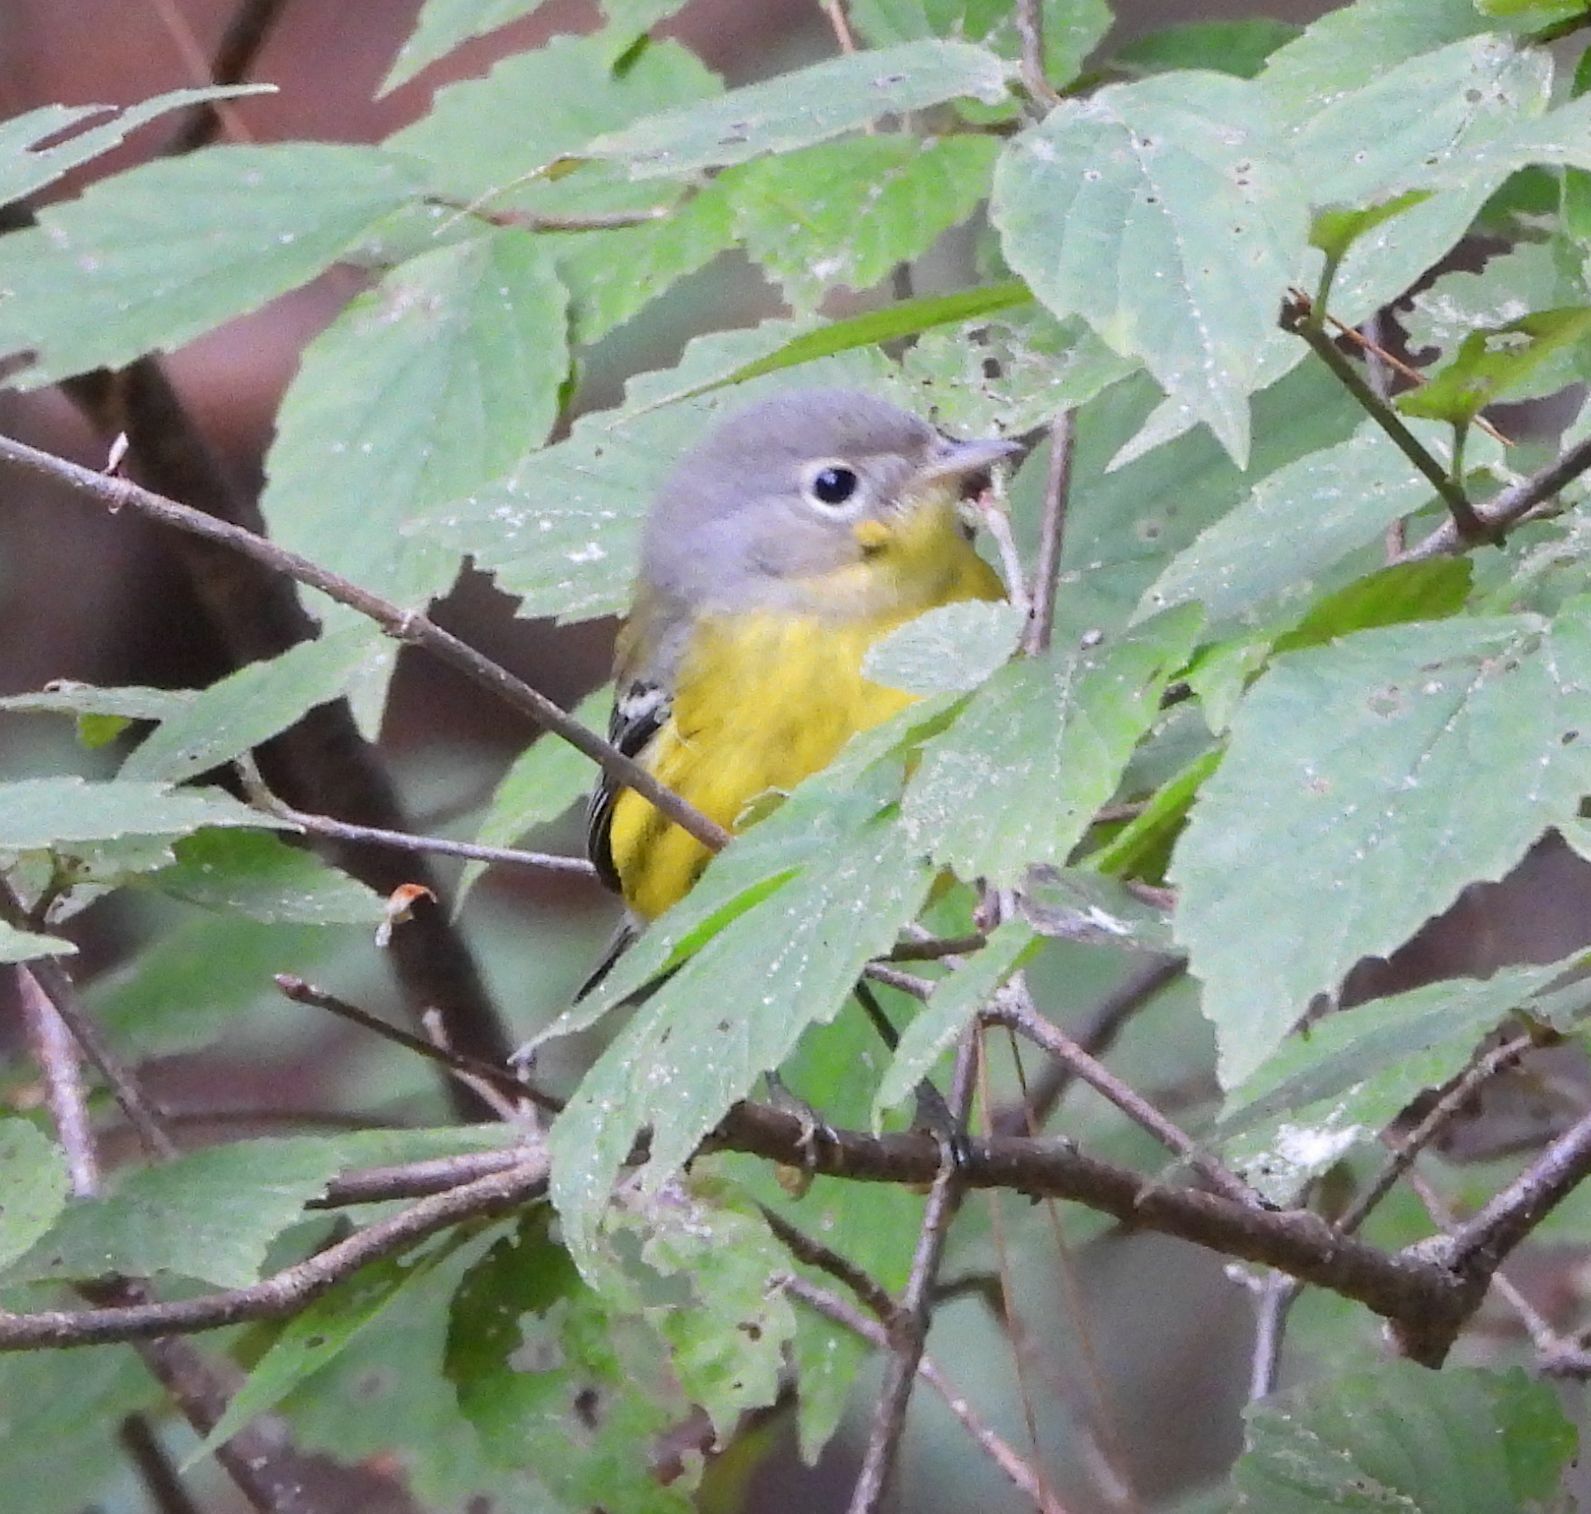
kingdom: Animalia
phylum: Chordata
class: Aves
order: Passeriformes
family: Parulidae
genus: Setophaga
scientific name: Setophaga magnolia
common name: Magnolia warbler
